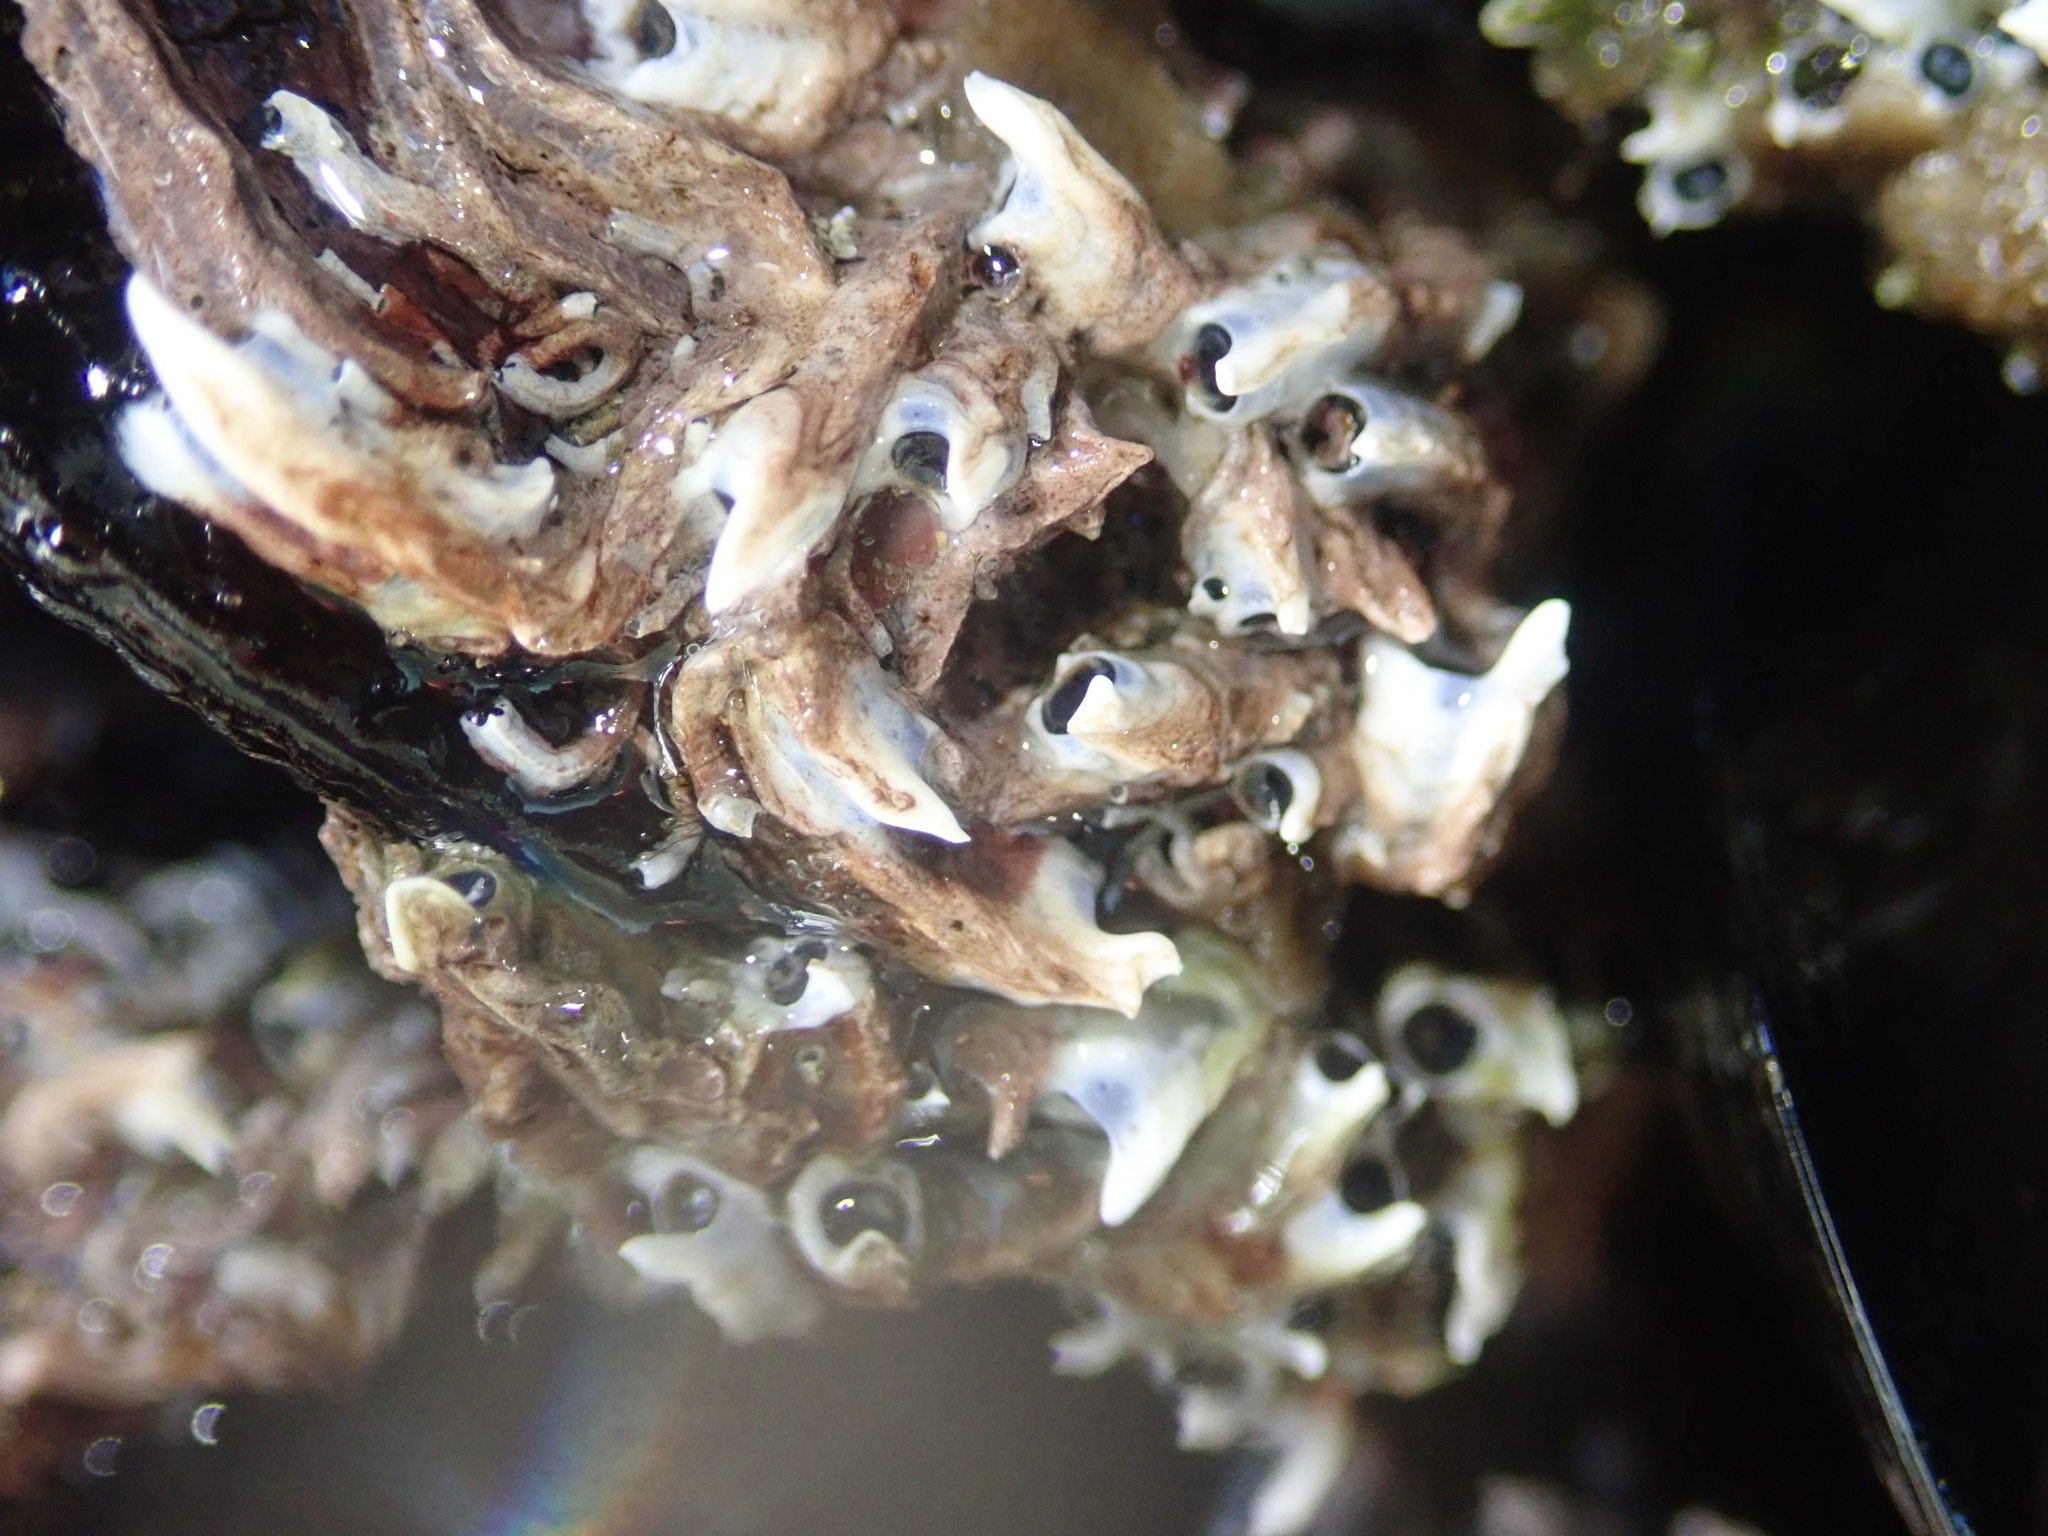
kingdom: Animalia
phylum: Annelida
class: Polychaeta
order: Sabellida
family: Serpulidae
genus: Spirobranchus
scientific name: Spirobranchus cariniferus
